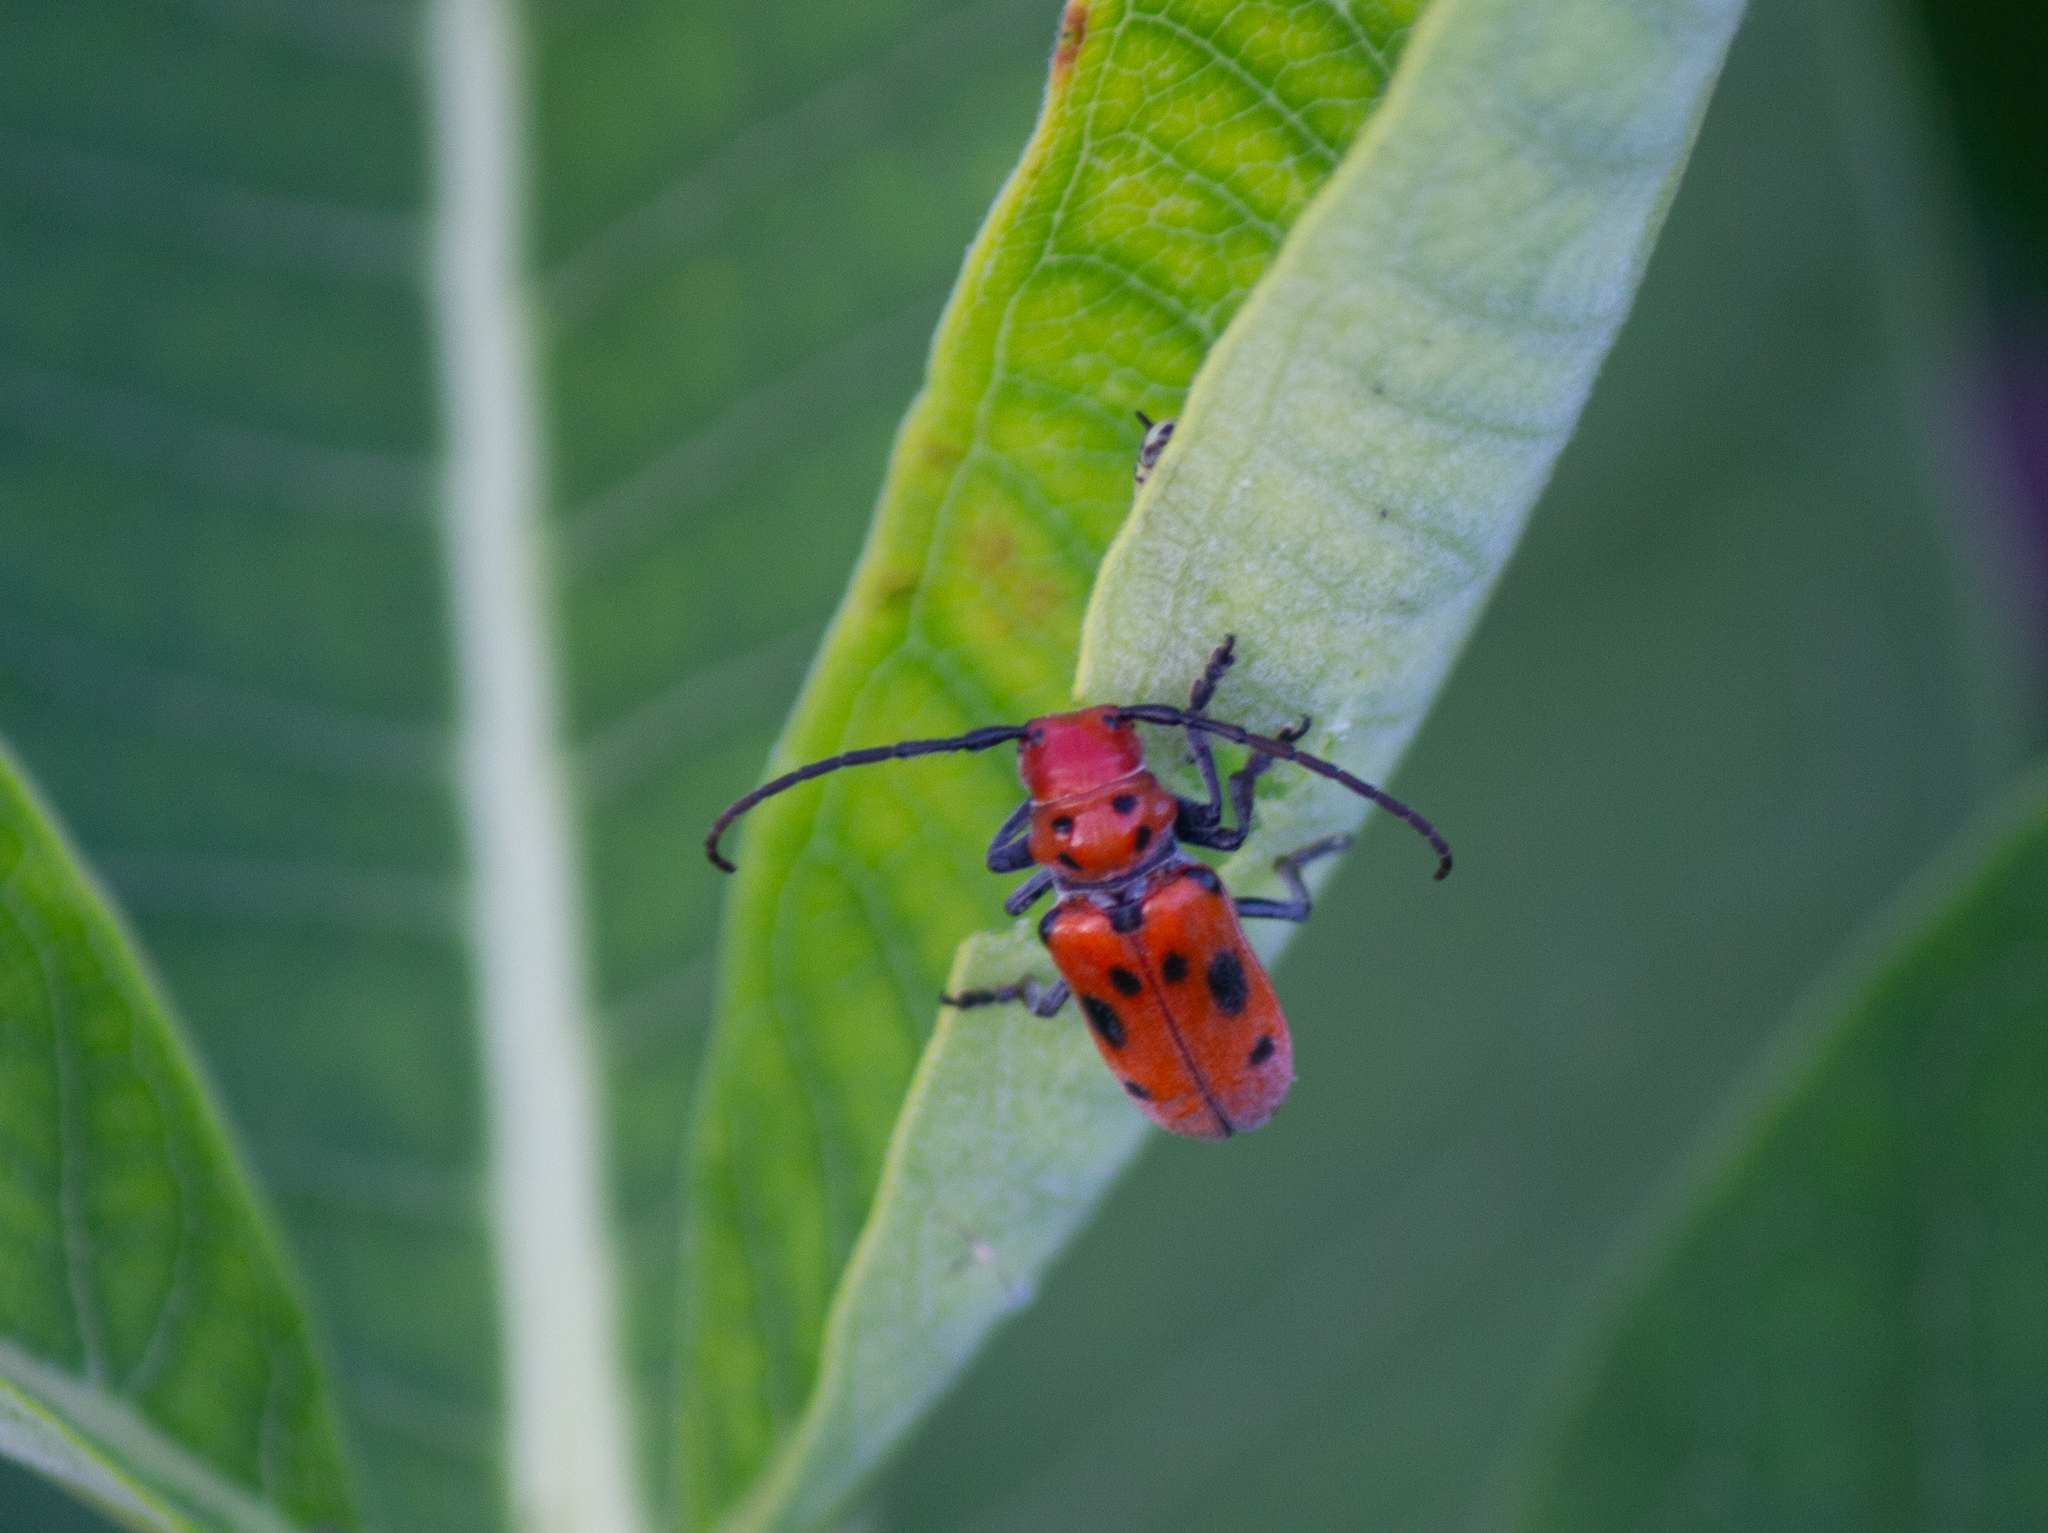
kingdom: Animalia
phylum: Arthropoda
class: Insecta
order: Coleoptera
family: Cerambycidae
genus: Tetraopes
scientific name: Tetraopes tetrophthalmus
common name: Red milkweed beetle
